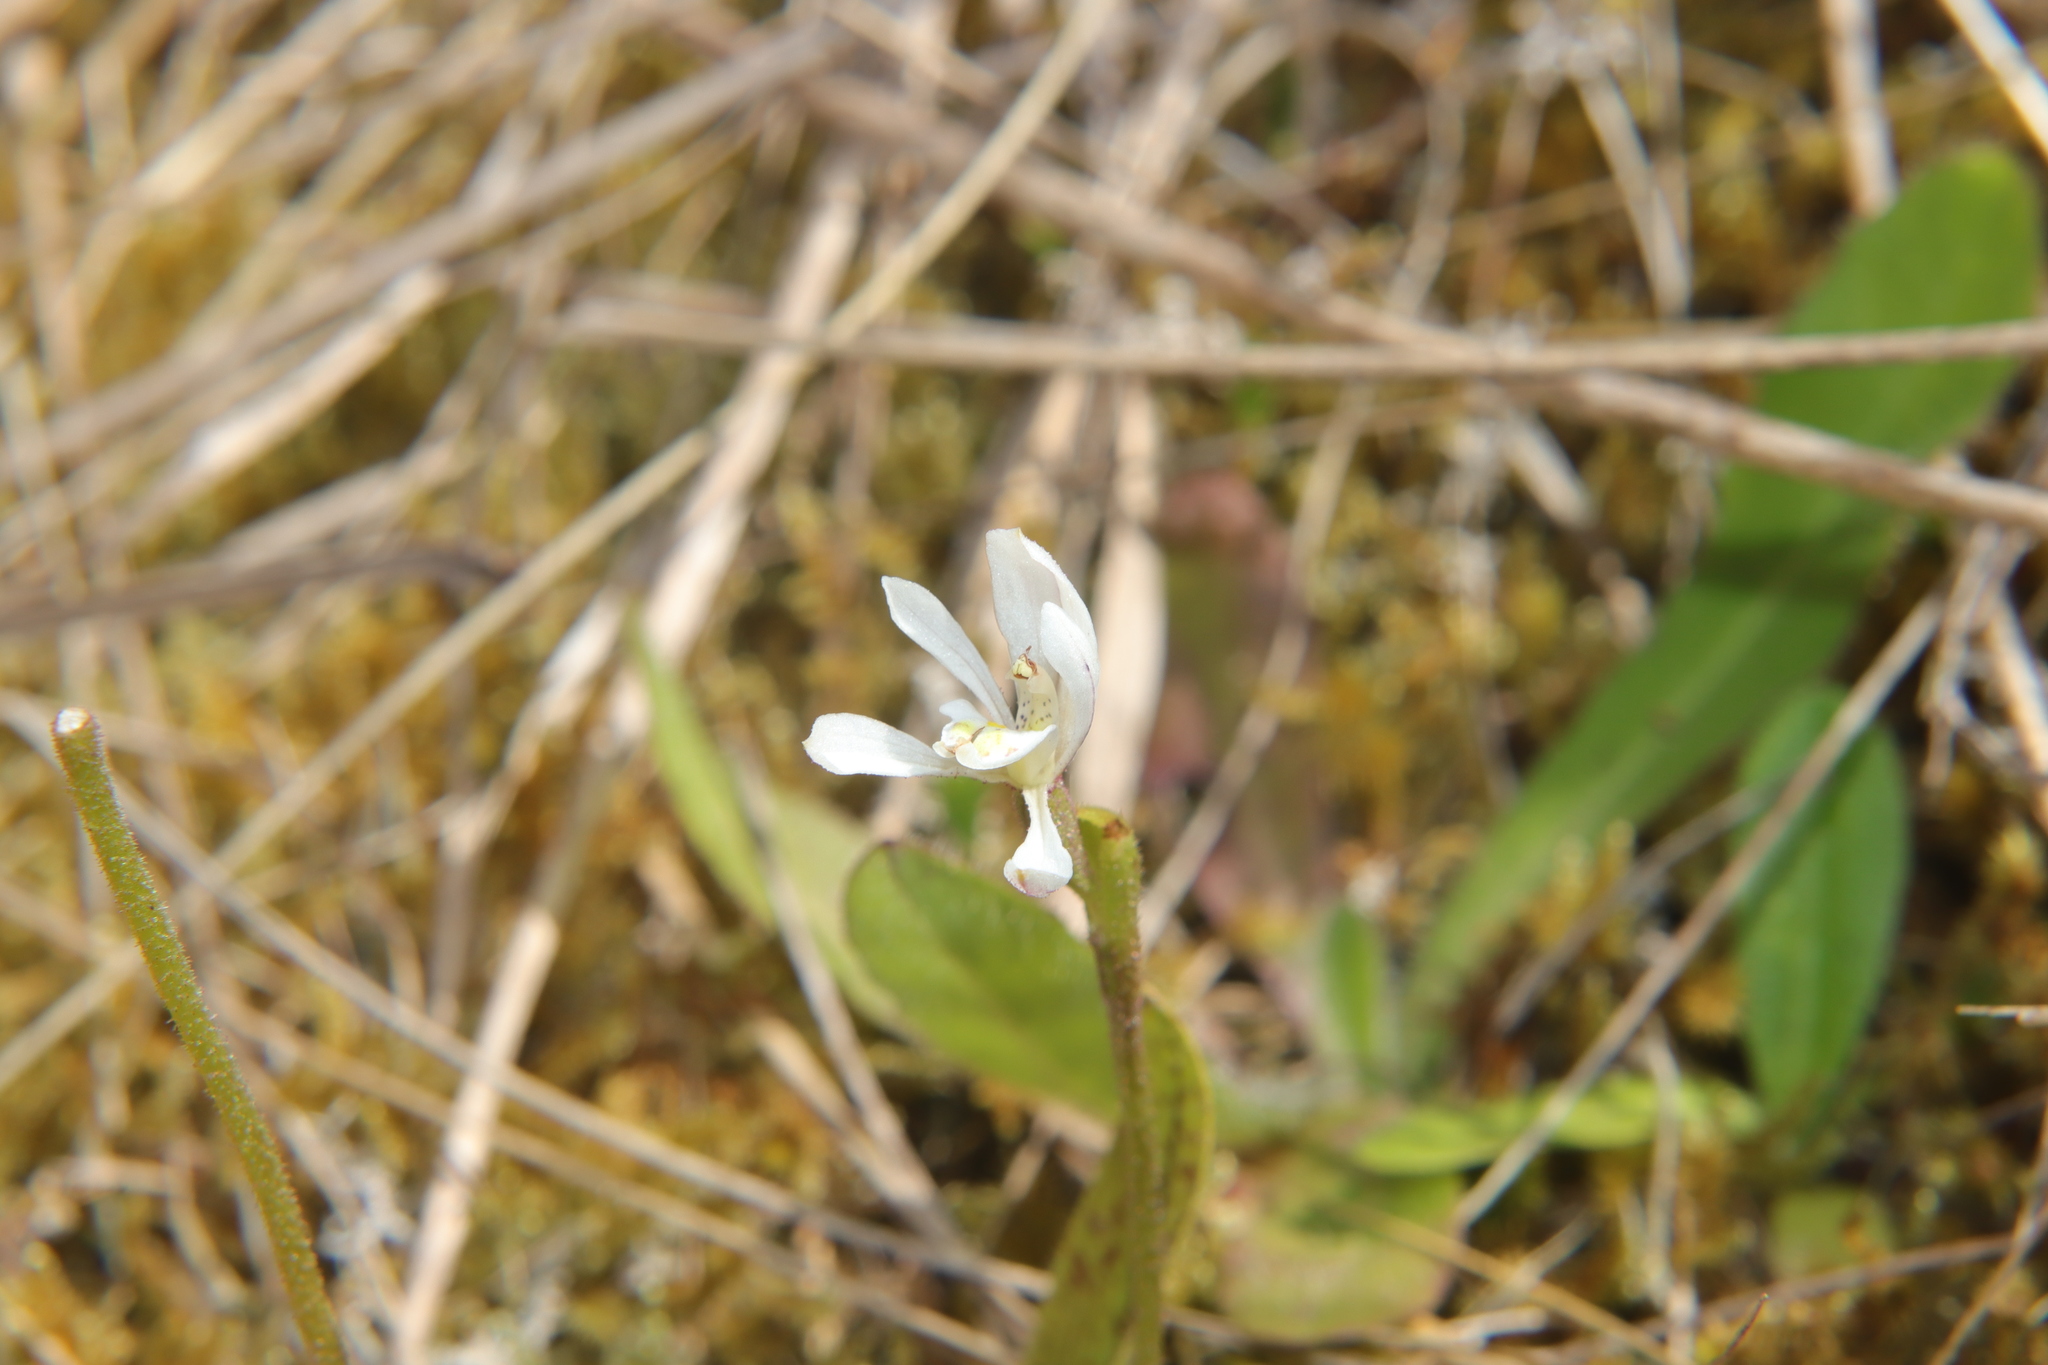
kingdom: Plantae
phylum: Tracheophyta
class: Liliopsida
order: Asparagales
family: Orchidaceae
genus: Aporostylis
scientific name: Aporostylis bifolia
